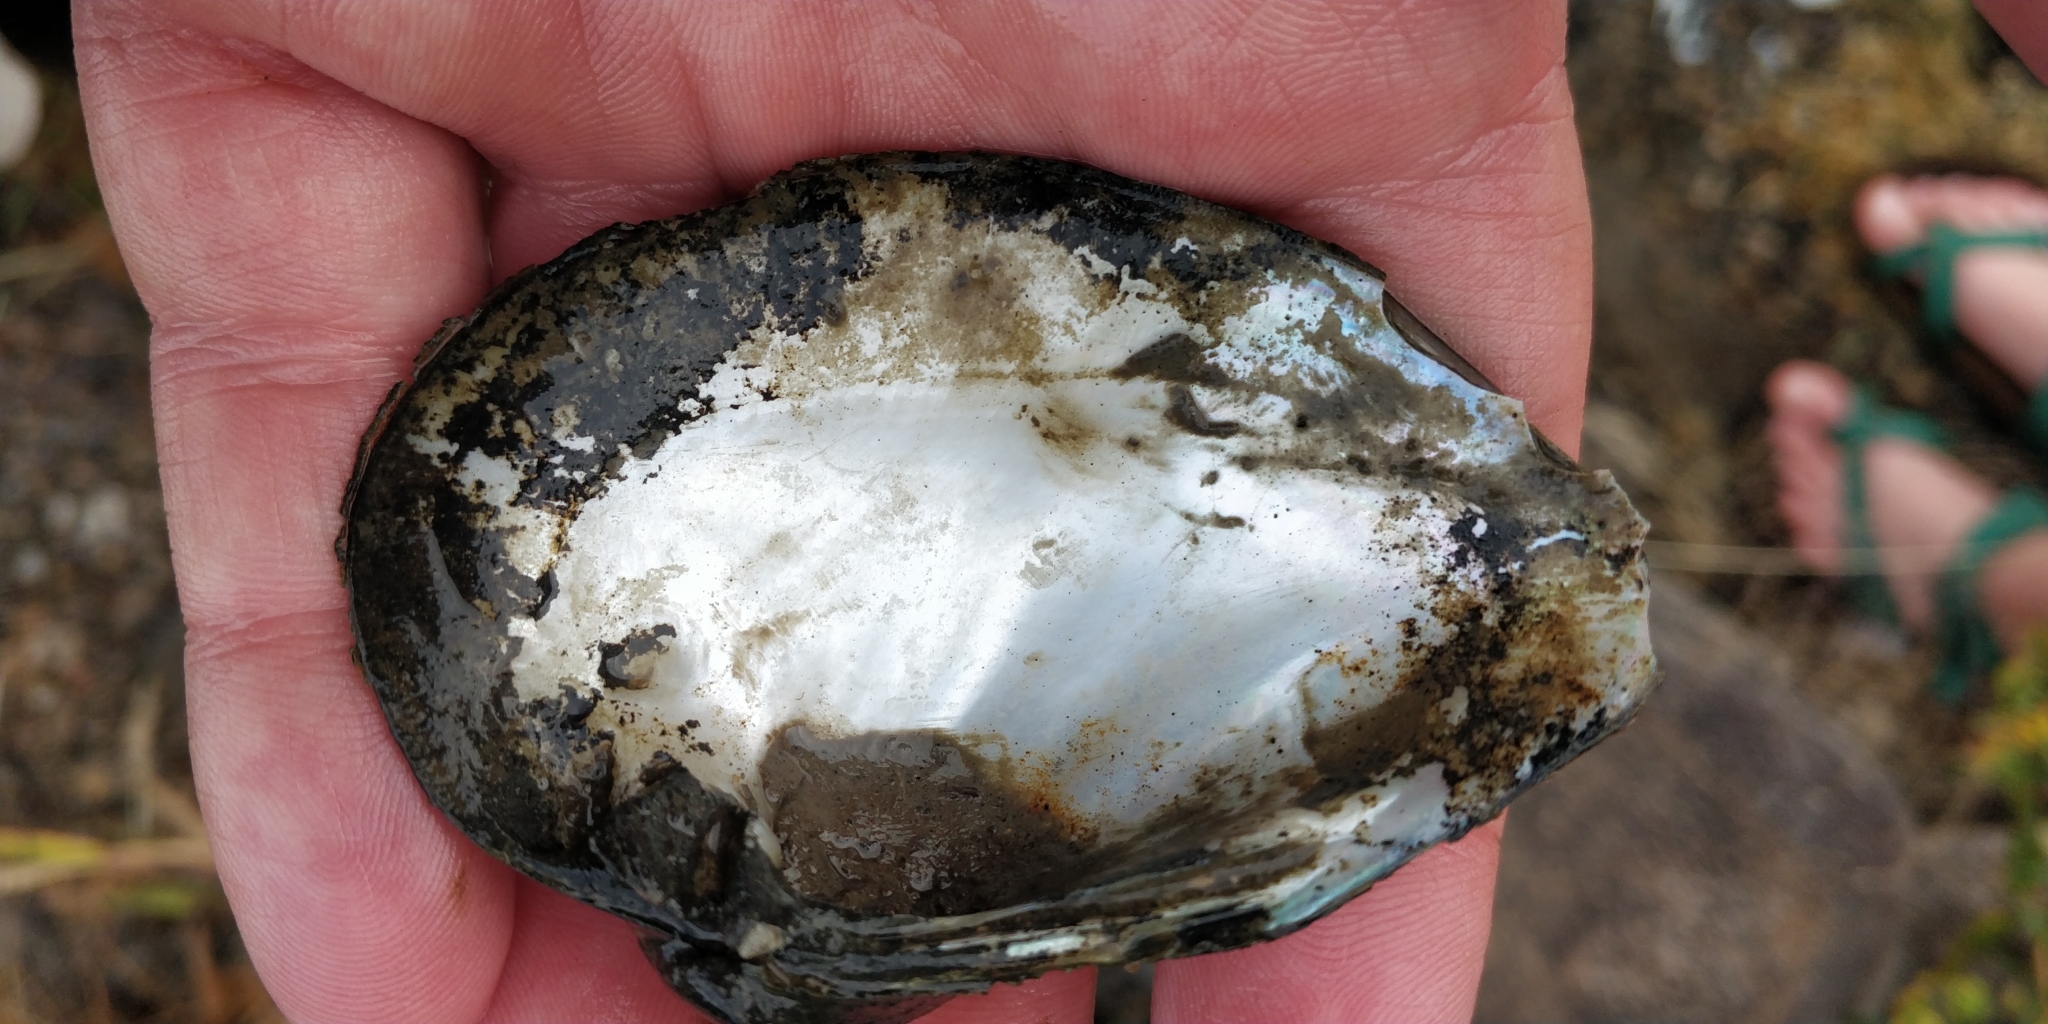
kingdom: Animalia
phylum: Mollusca
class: Bivalvia
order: Unionida
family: Unionidae
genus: Truncilla
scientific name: Truncilla truncata
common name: Deertoe
